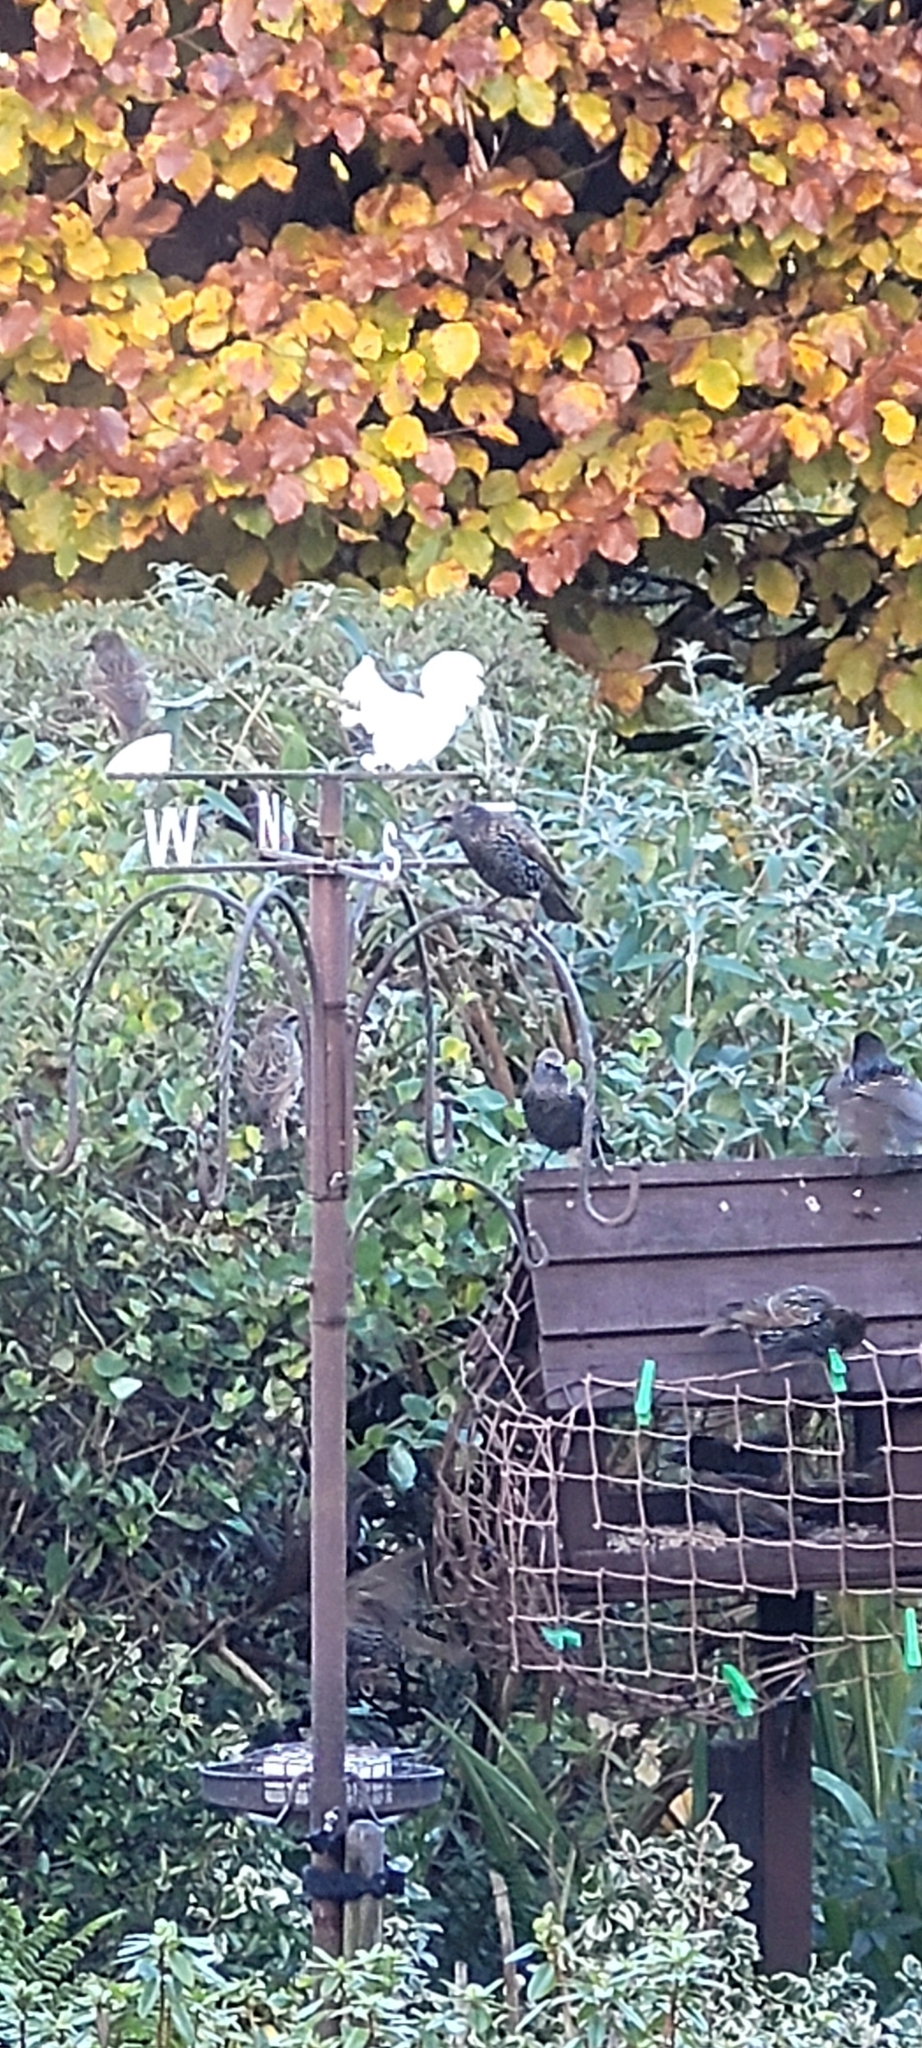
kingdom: Animalia
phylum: Chordata
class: Aves
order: Passeriformes
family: Sturnidae
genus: Sturnus
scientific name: Sturnus vulgaris
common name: Common starling
